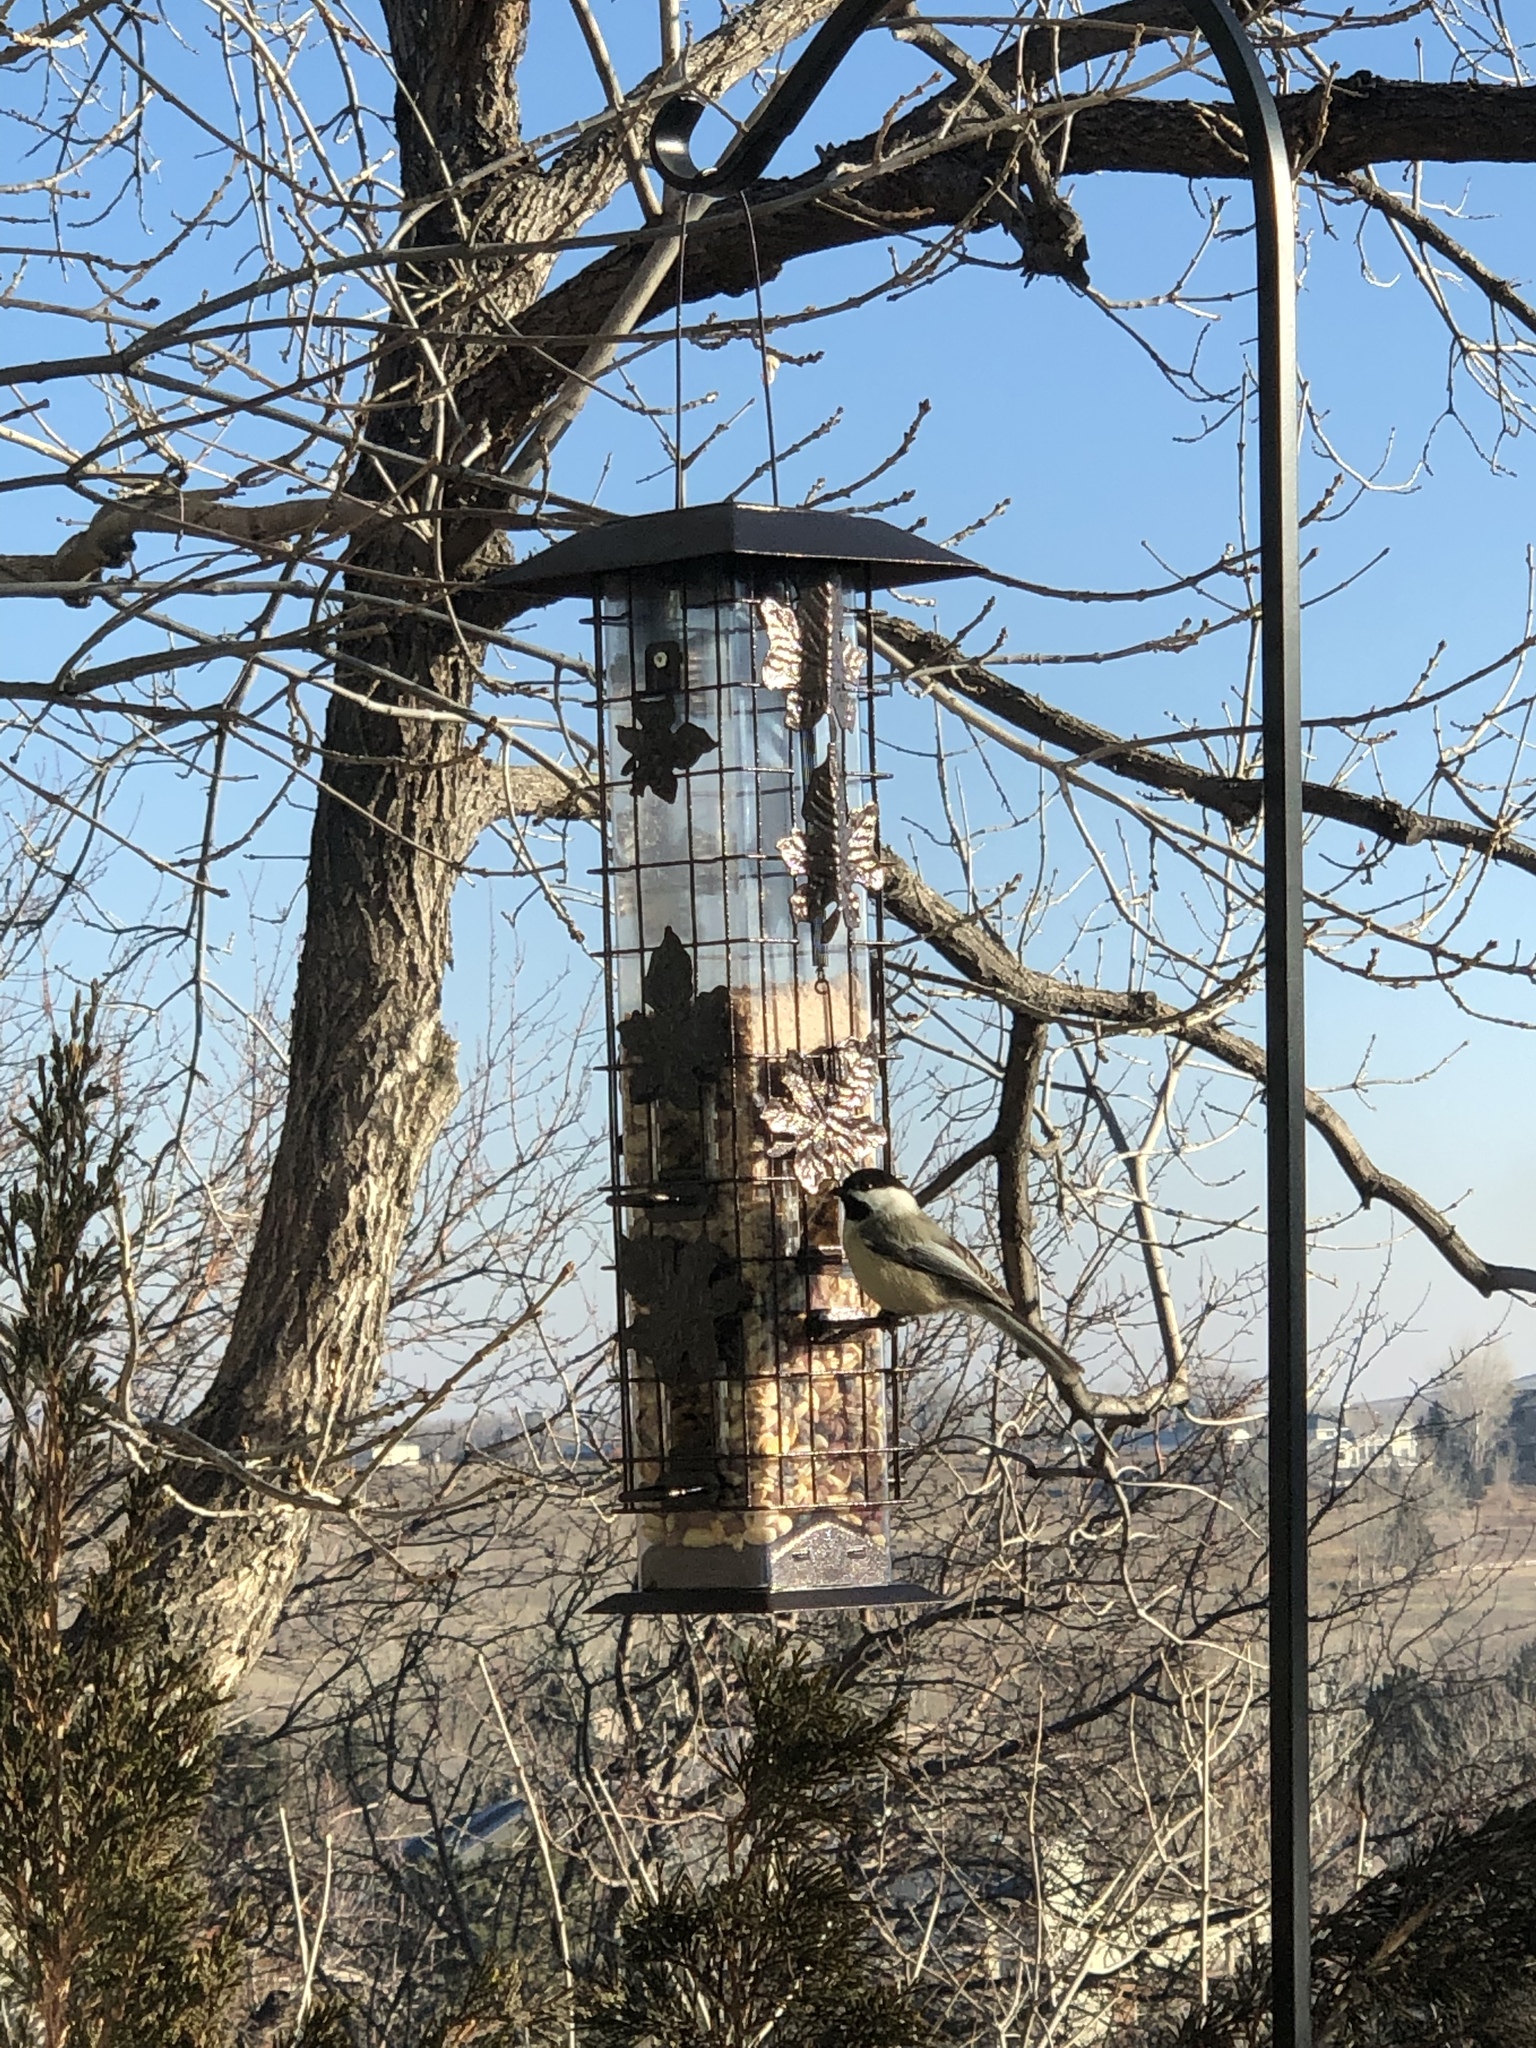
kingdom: Animalia
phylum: Chordata
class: Aves
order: Passeriformes
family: Paridae
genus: Poecile
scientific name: Poecile atricapillus
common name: Black-capped chickadee
